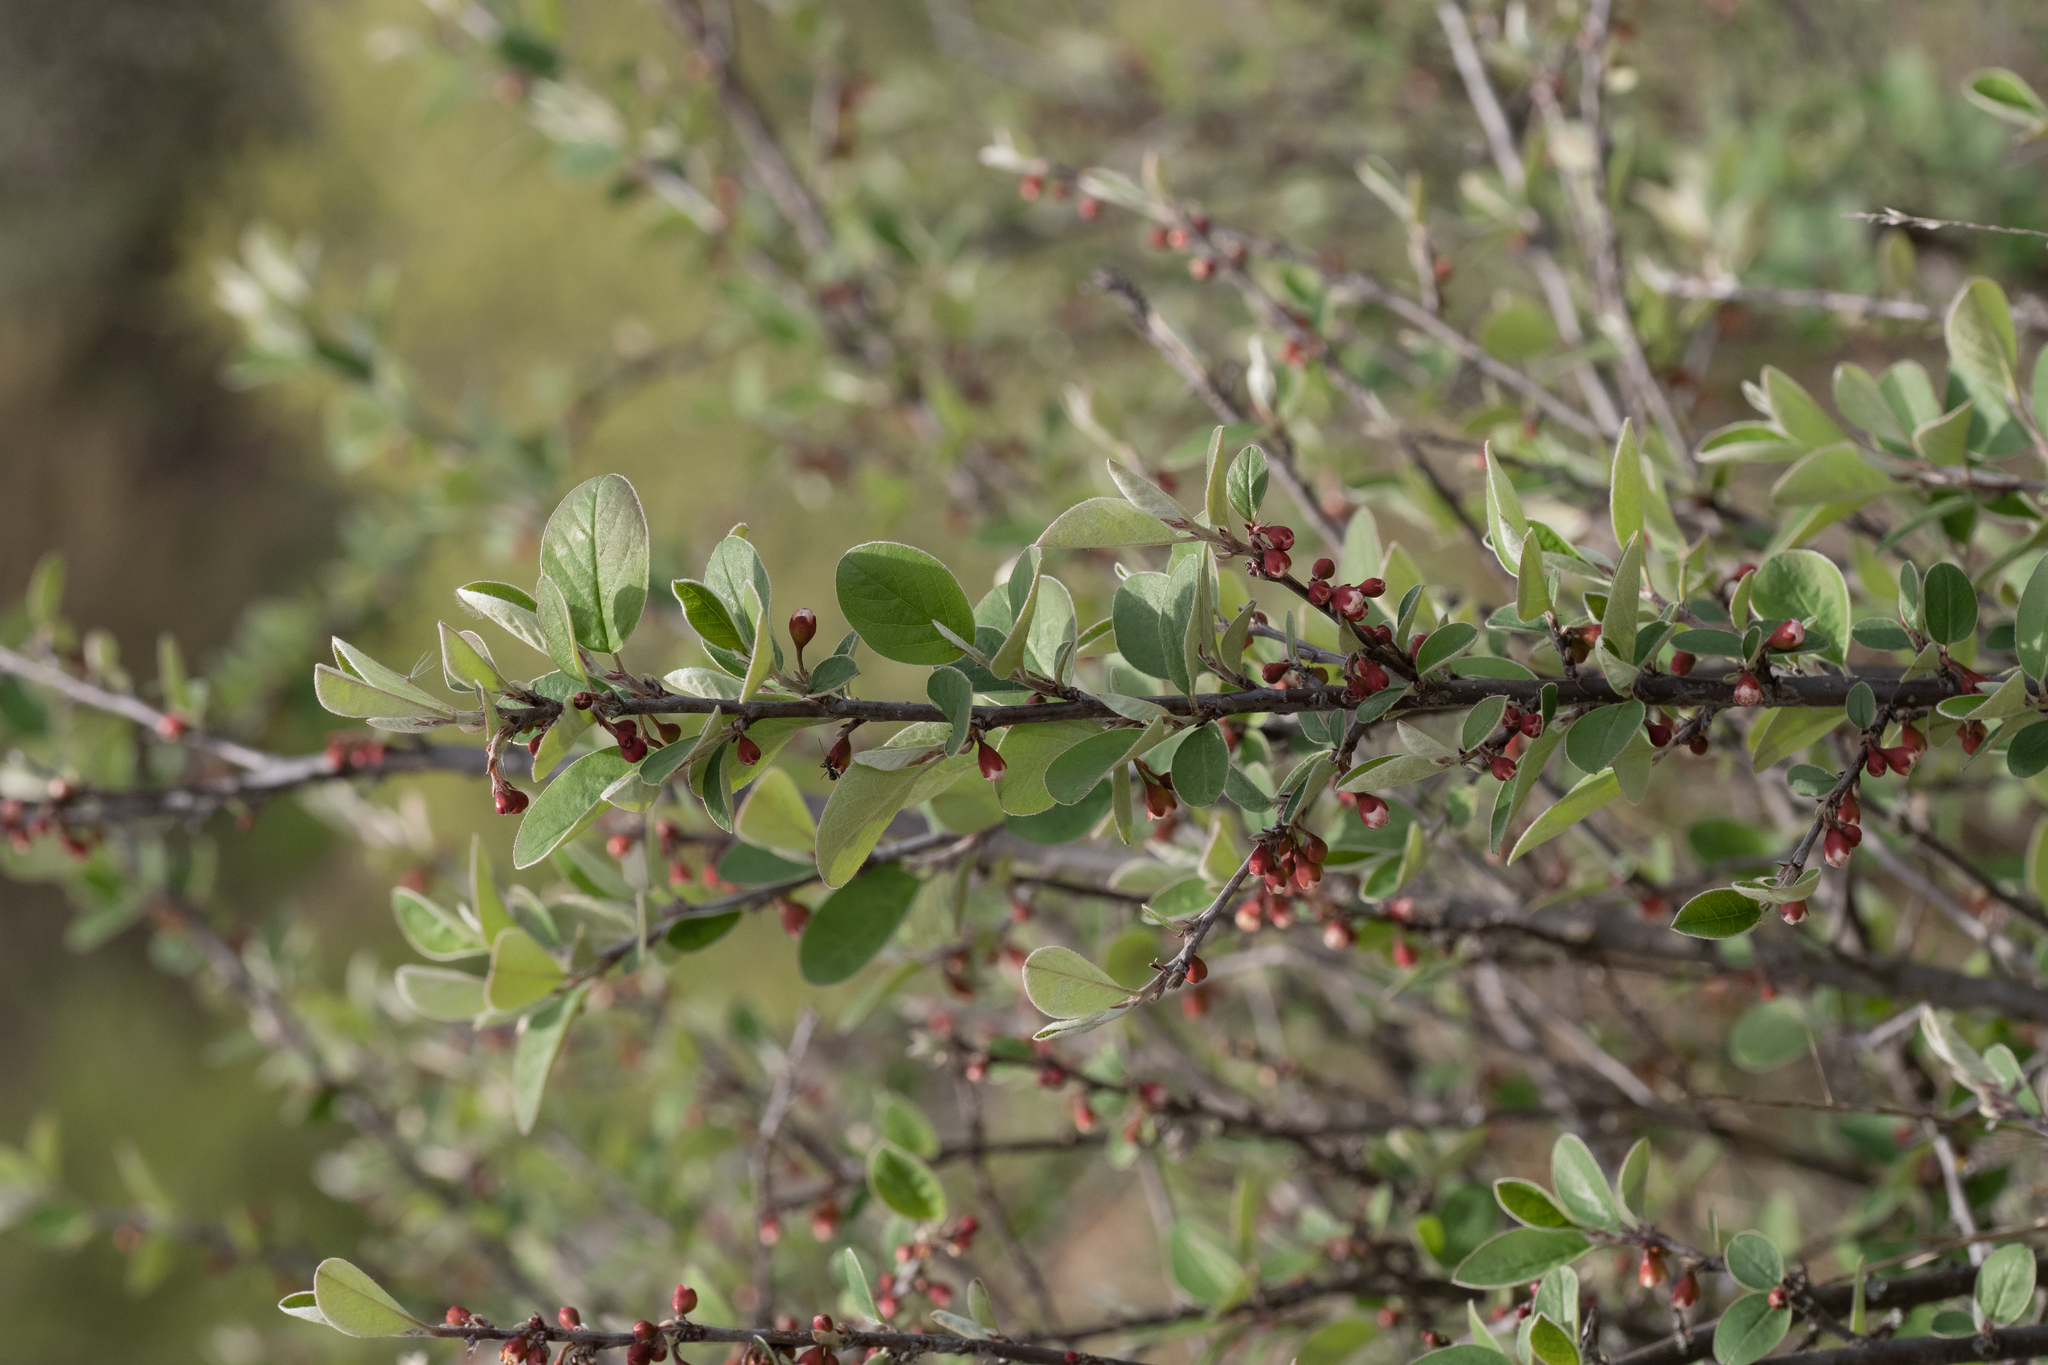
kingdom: Plantae
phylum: Tracheophyta
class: Magnoliopsida
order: Rosales
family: Rosaceae
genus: Cotoneaster
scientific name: Cotoneaster integerrimus
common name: Wild cotoneaster
